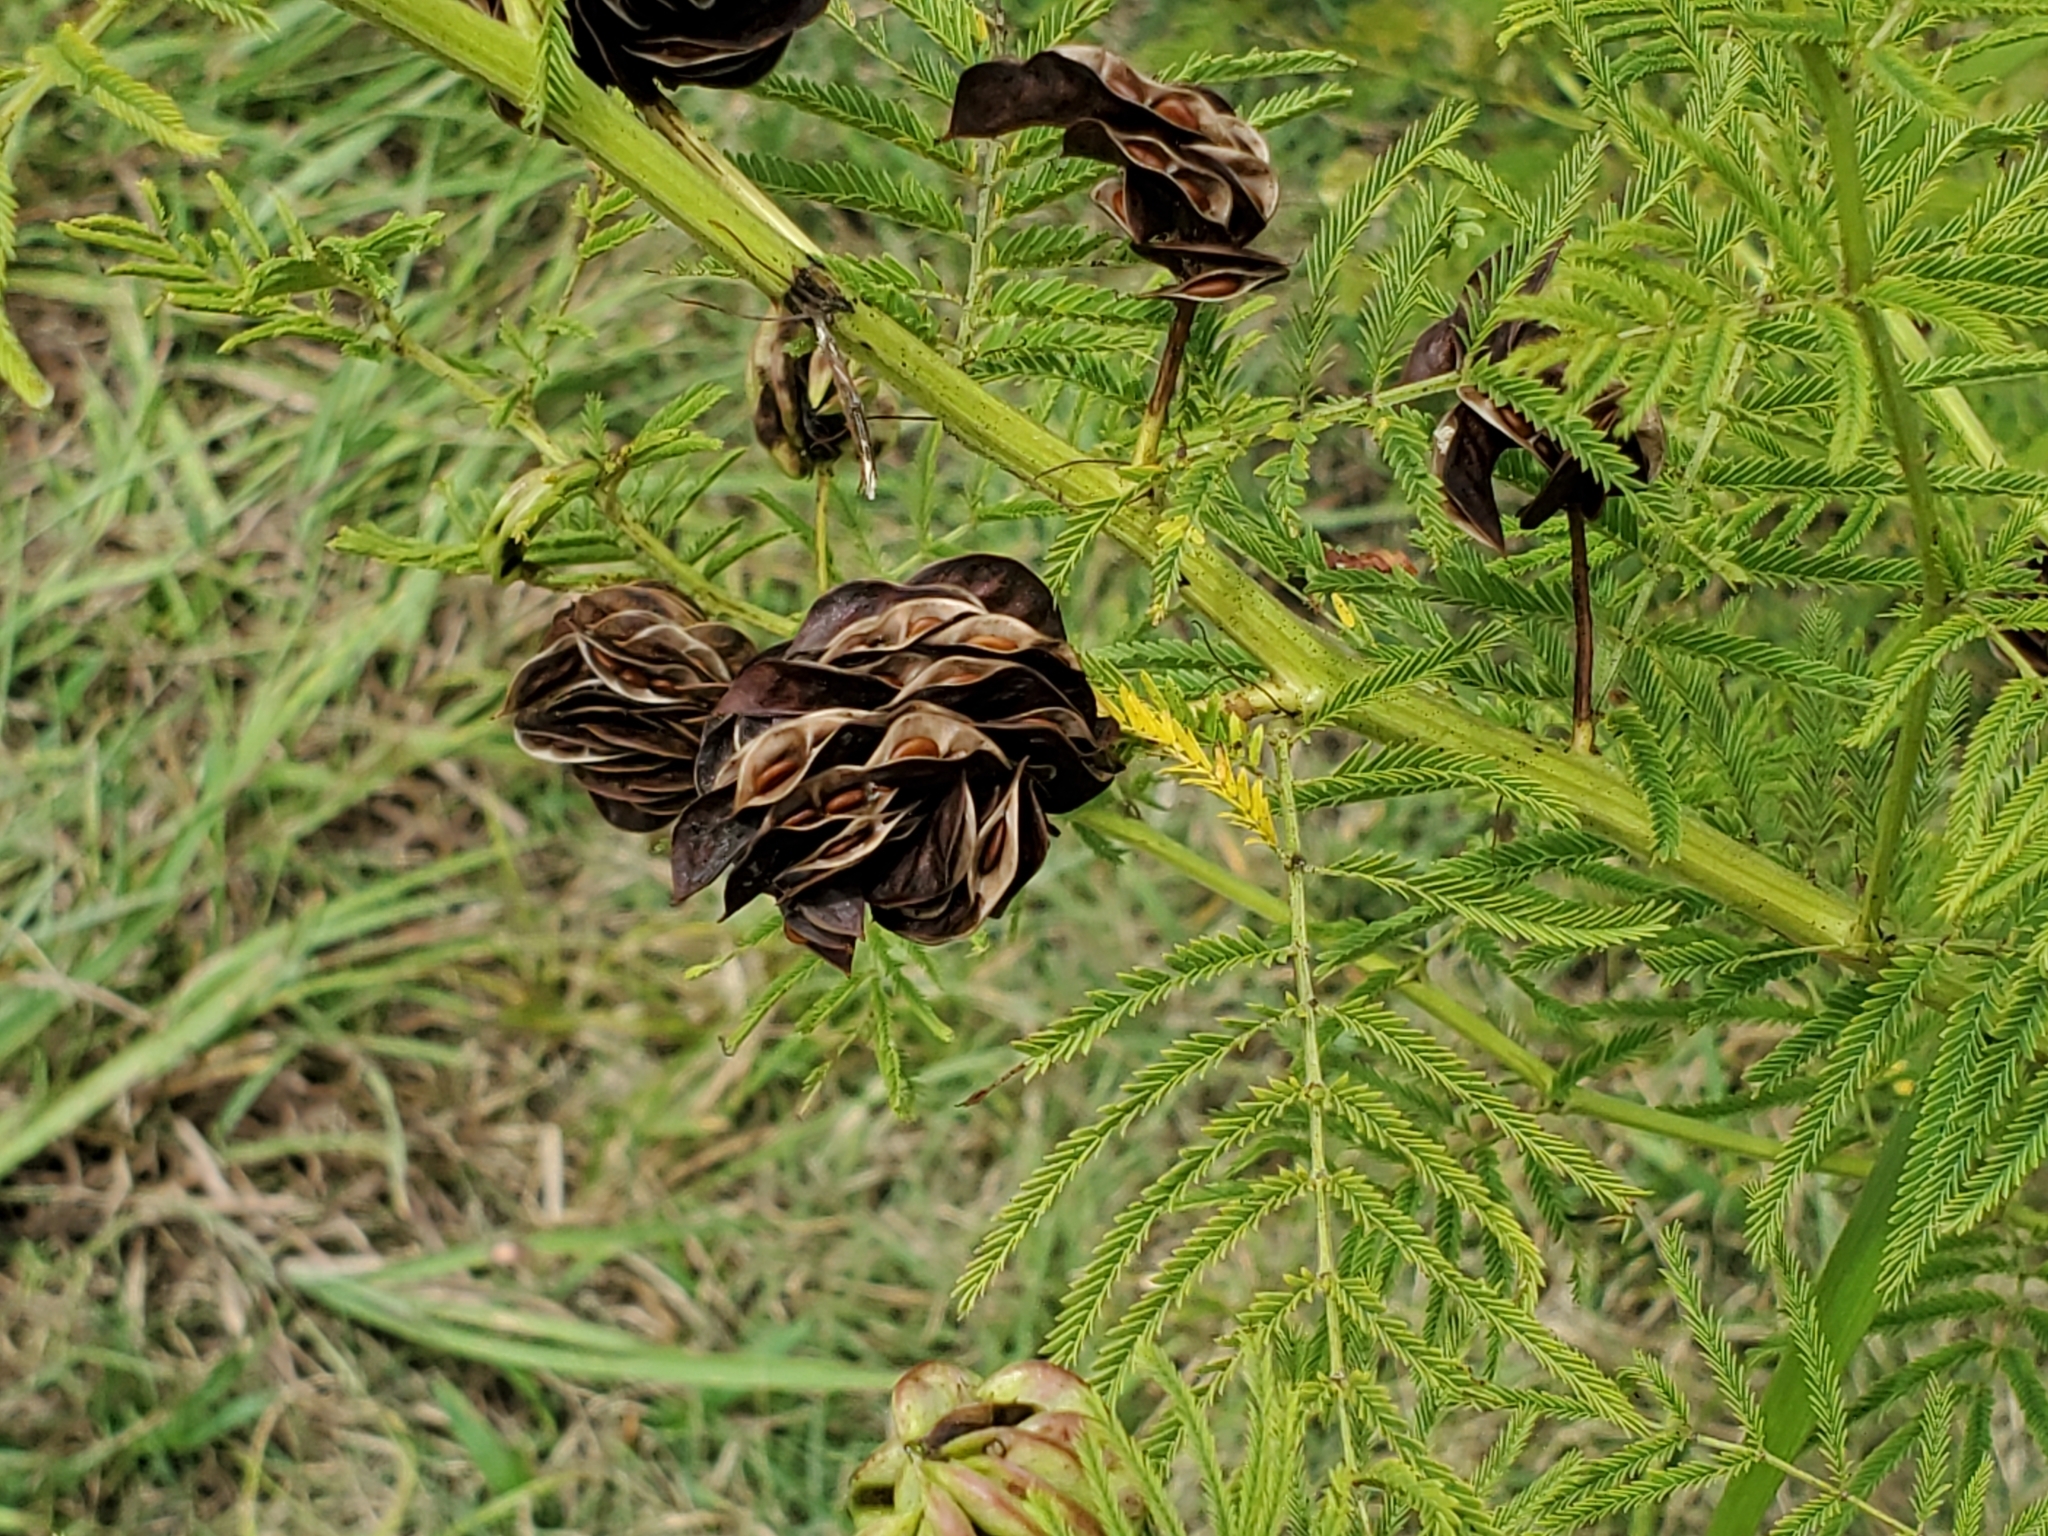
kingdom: Plantae
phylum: Tracheophyta
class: Magnoliopsida
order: Fabales
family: Fabaceae
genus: Desmanthus
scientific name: Desmanthus illinoensis
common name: Illinois bundle-flower
